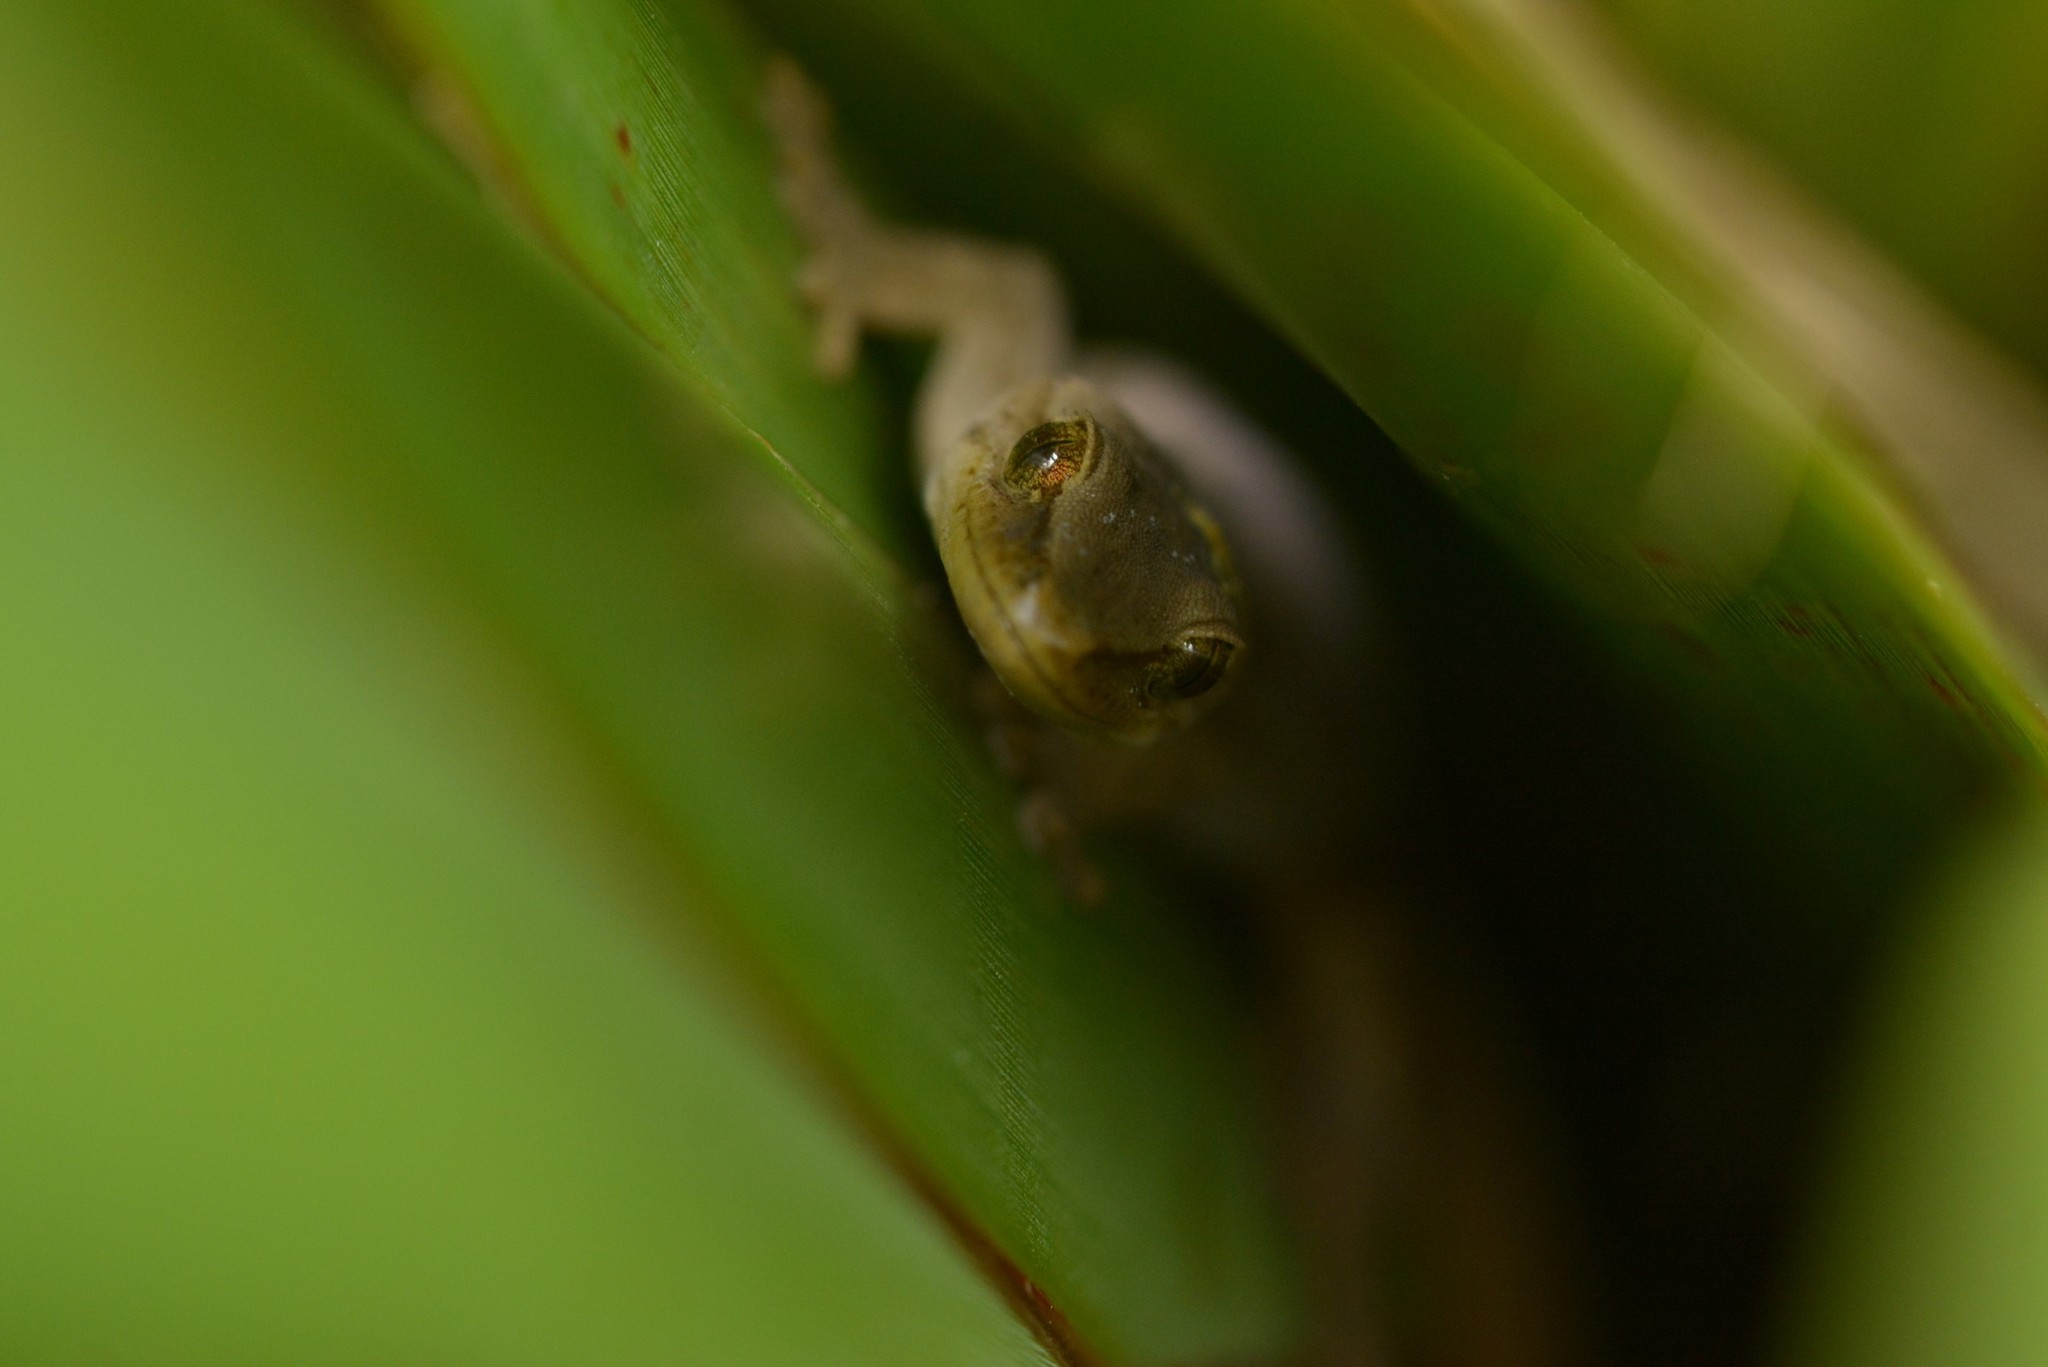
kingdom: Animalia
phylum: Chordata
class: Squamata
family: Diplodactylidae
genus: Woodworthia
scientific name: Woodworthia chrysosiretica
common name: Gold-striped gecko
